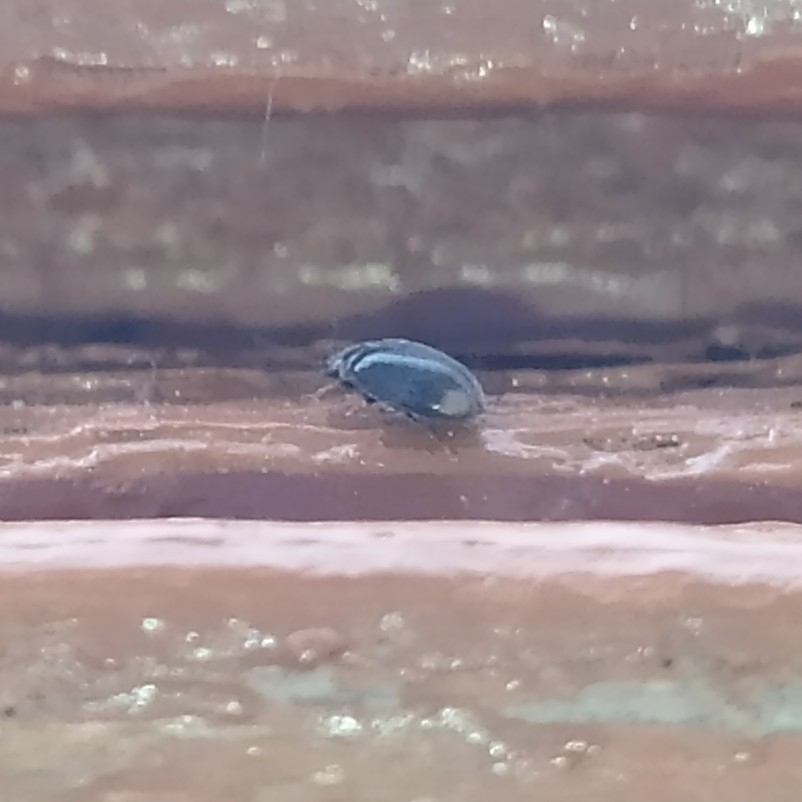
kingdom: Animalia
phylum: Arthropoda
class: Insecta
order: Coleoptera
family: Scirtidae
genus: Cyphon
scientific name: Cyphon padi
